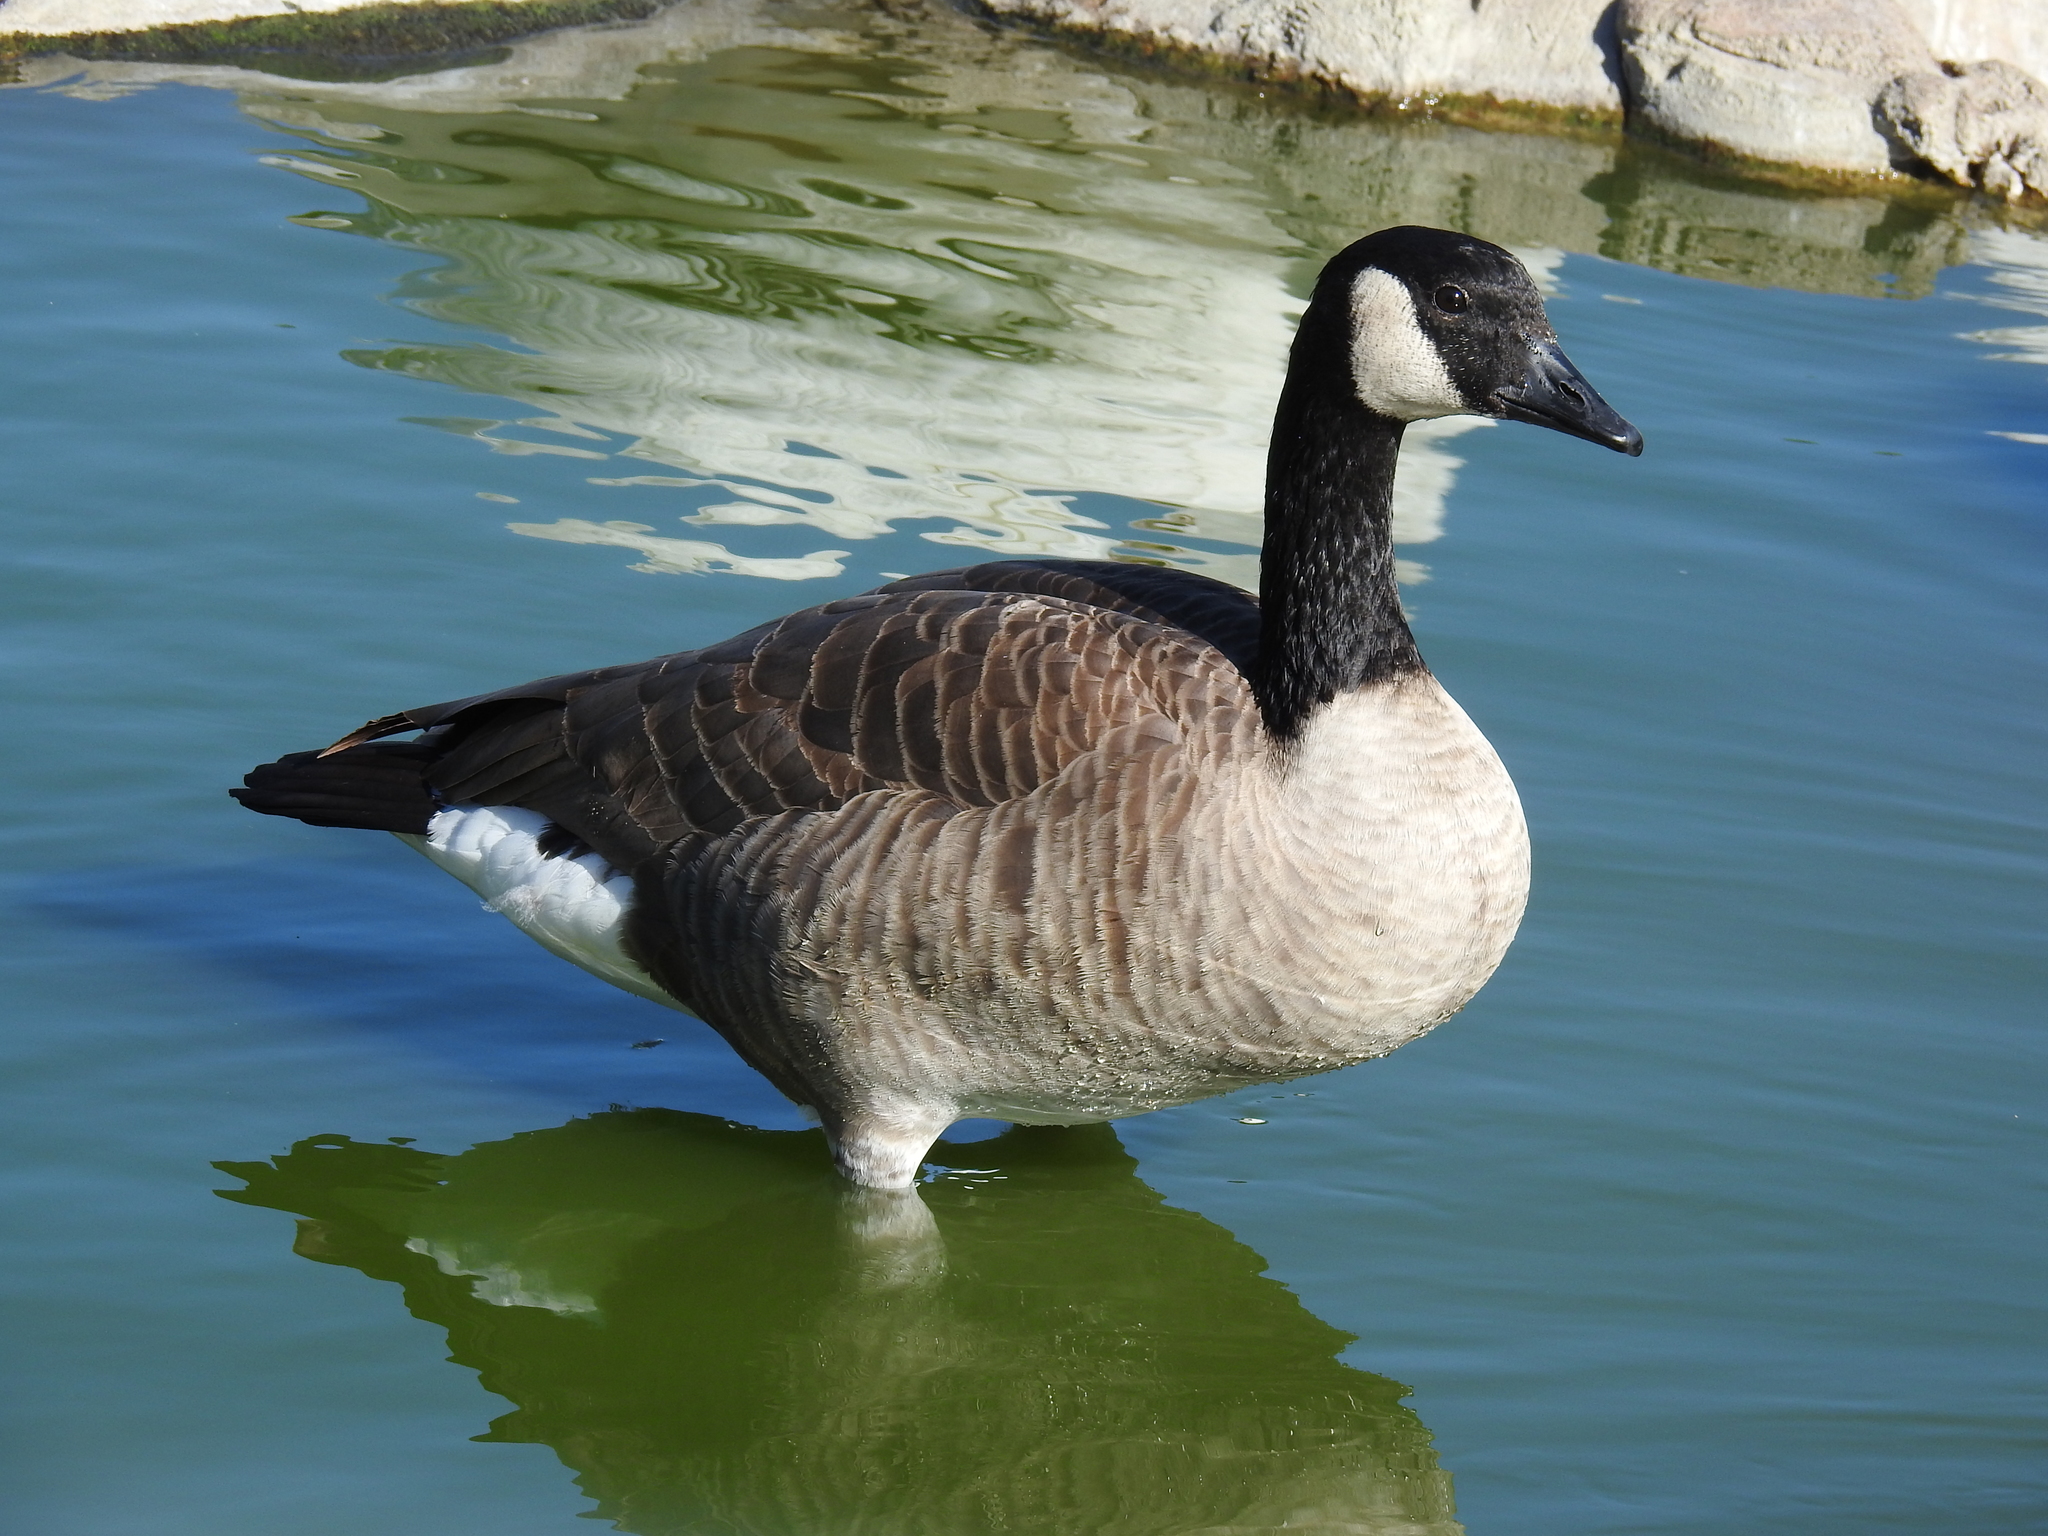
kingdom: Animalia
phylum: Chordata
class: Aves
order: Anseriformes
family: Anatidae
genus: Branta
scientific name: Branta canadensis
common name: Canada goose
